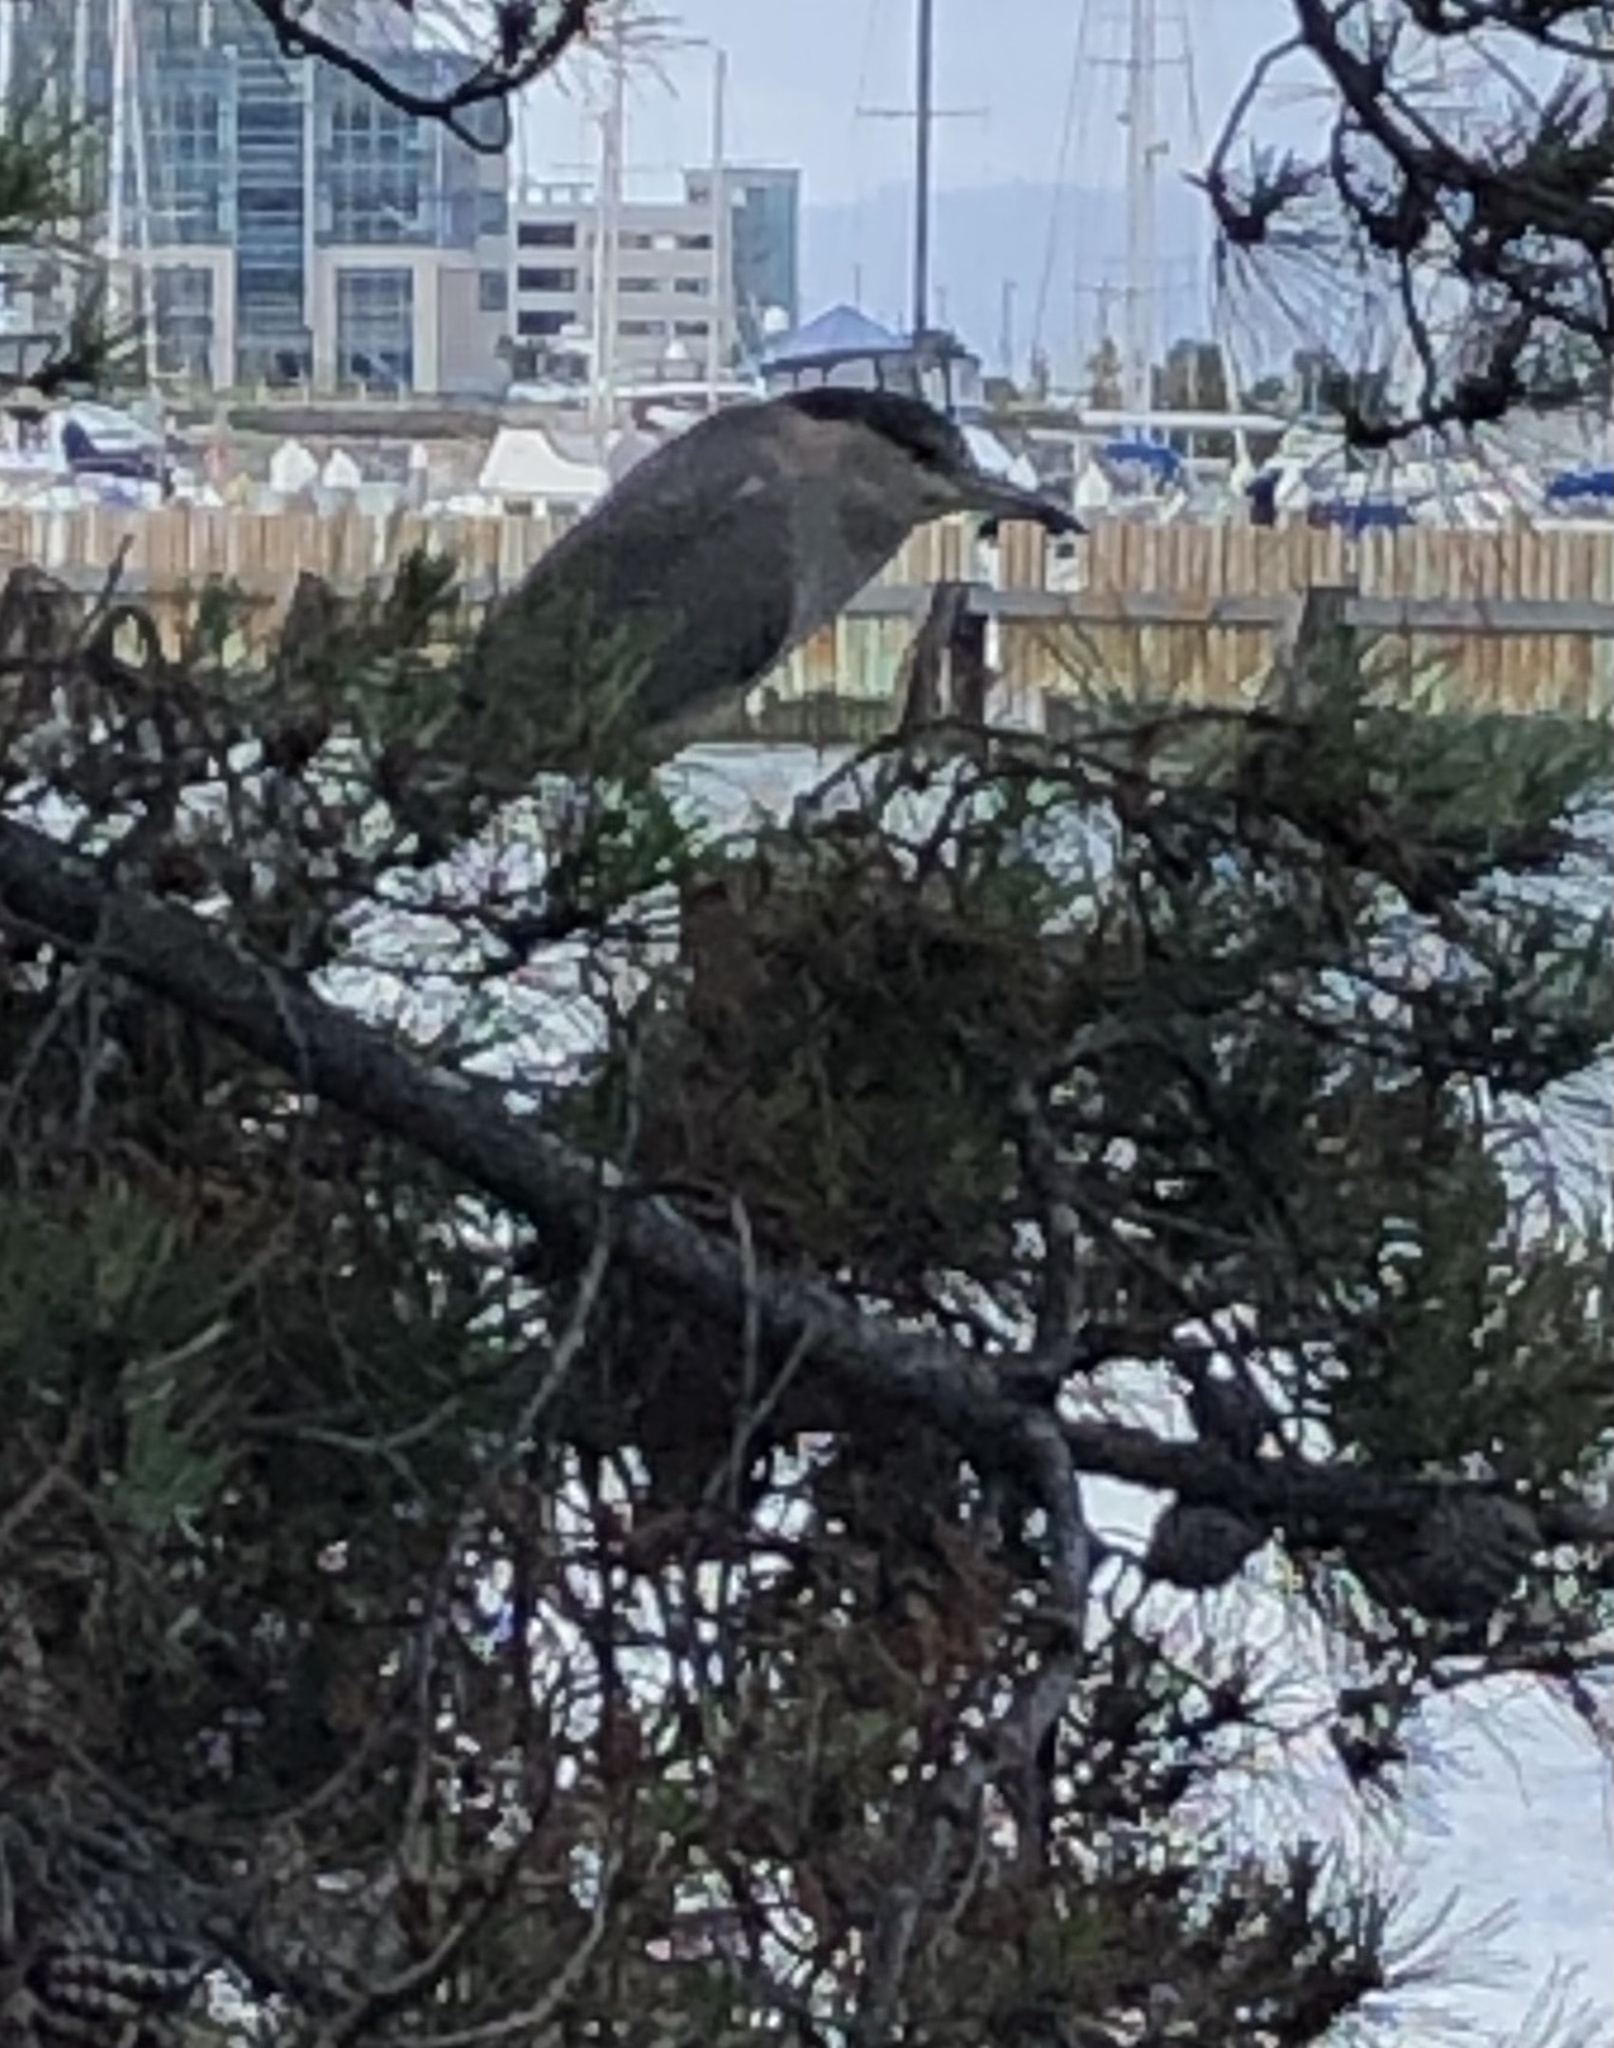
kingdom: Animalia
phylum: Chordata
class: Aves
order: Pelecaniformes
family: Ardeidae
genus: Nycticorax
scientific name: Nycticorax nycticorax
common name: Black-crowned night heron
